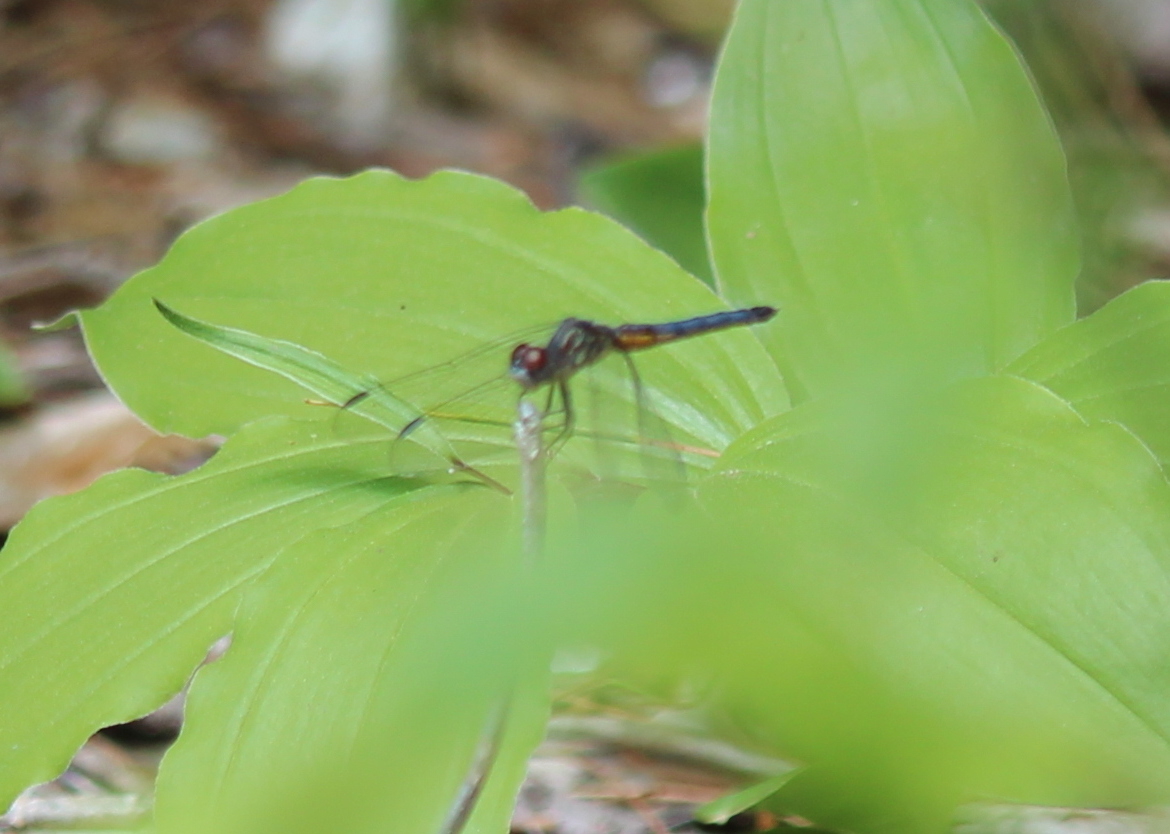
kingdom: Animalia
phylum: Arthropoda
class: Insecta
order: Odonata
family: Libellulidae
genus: Pachydiplax
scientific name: Pachydiplax longipennis
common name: Blue dasher
